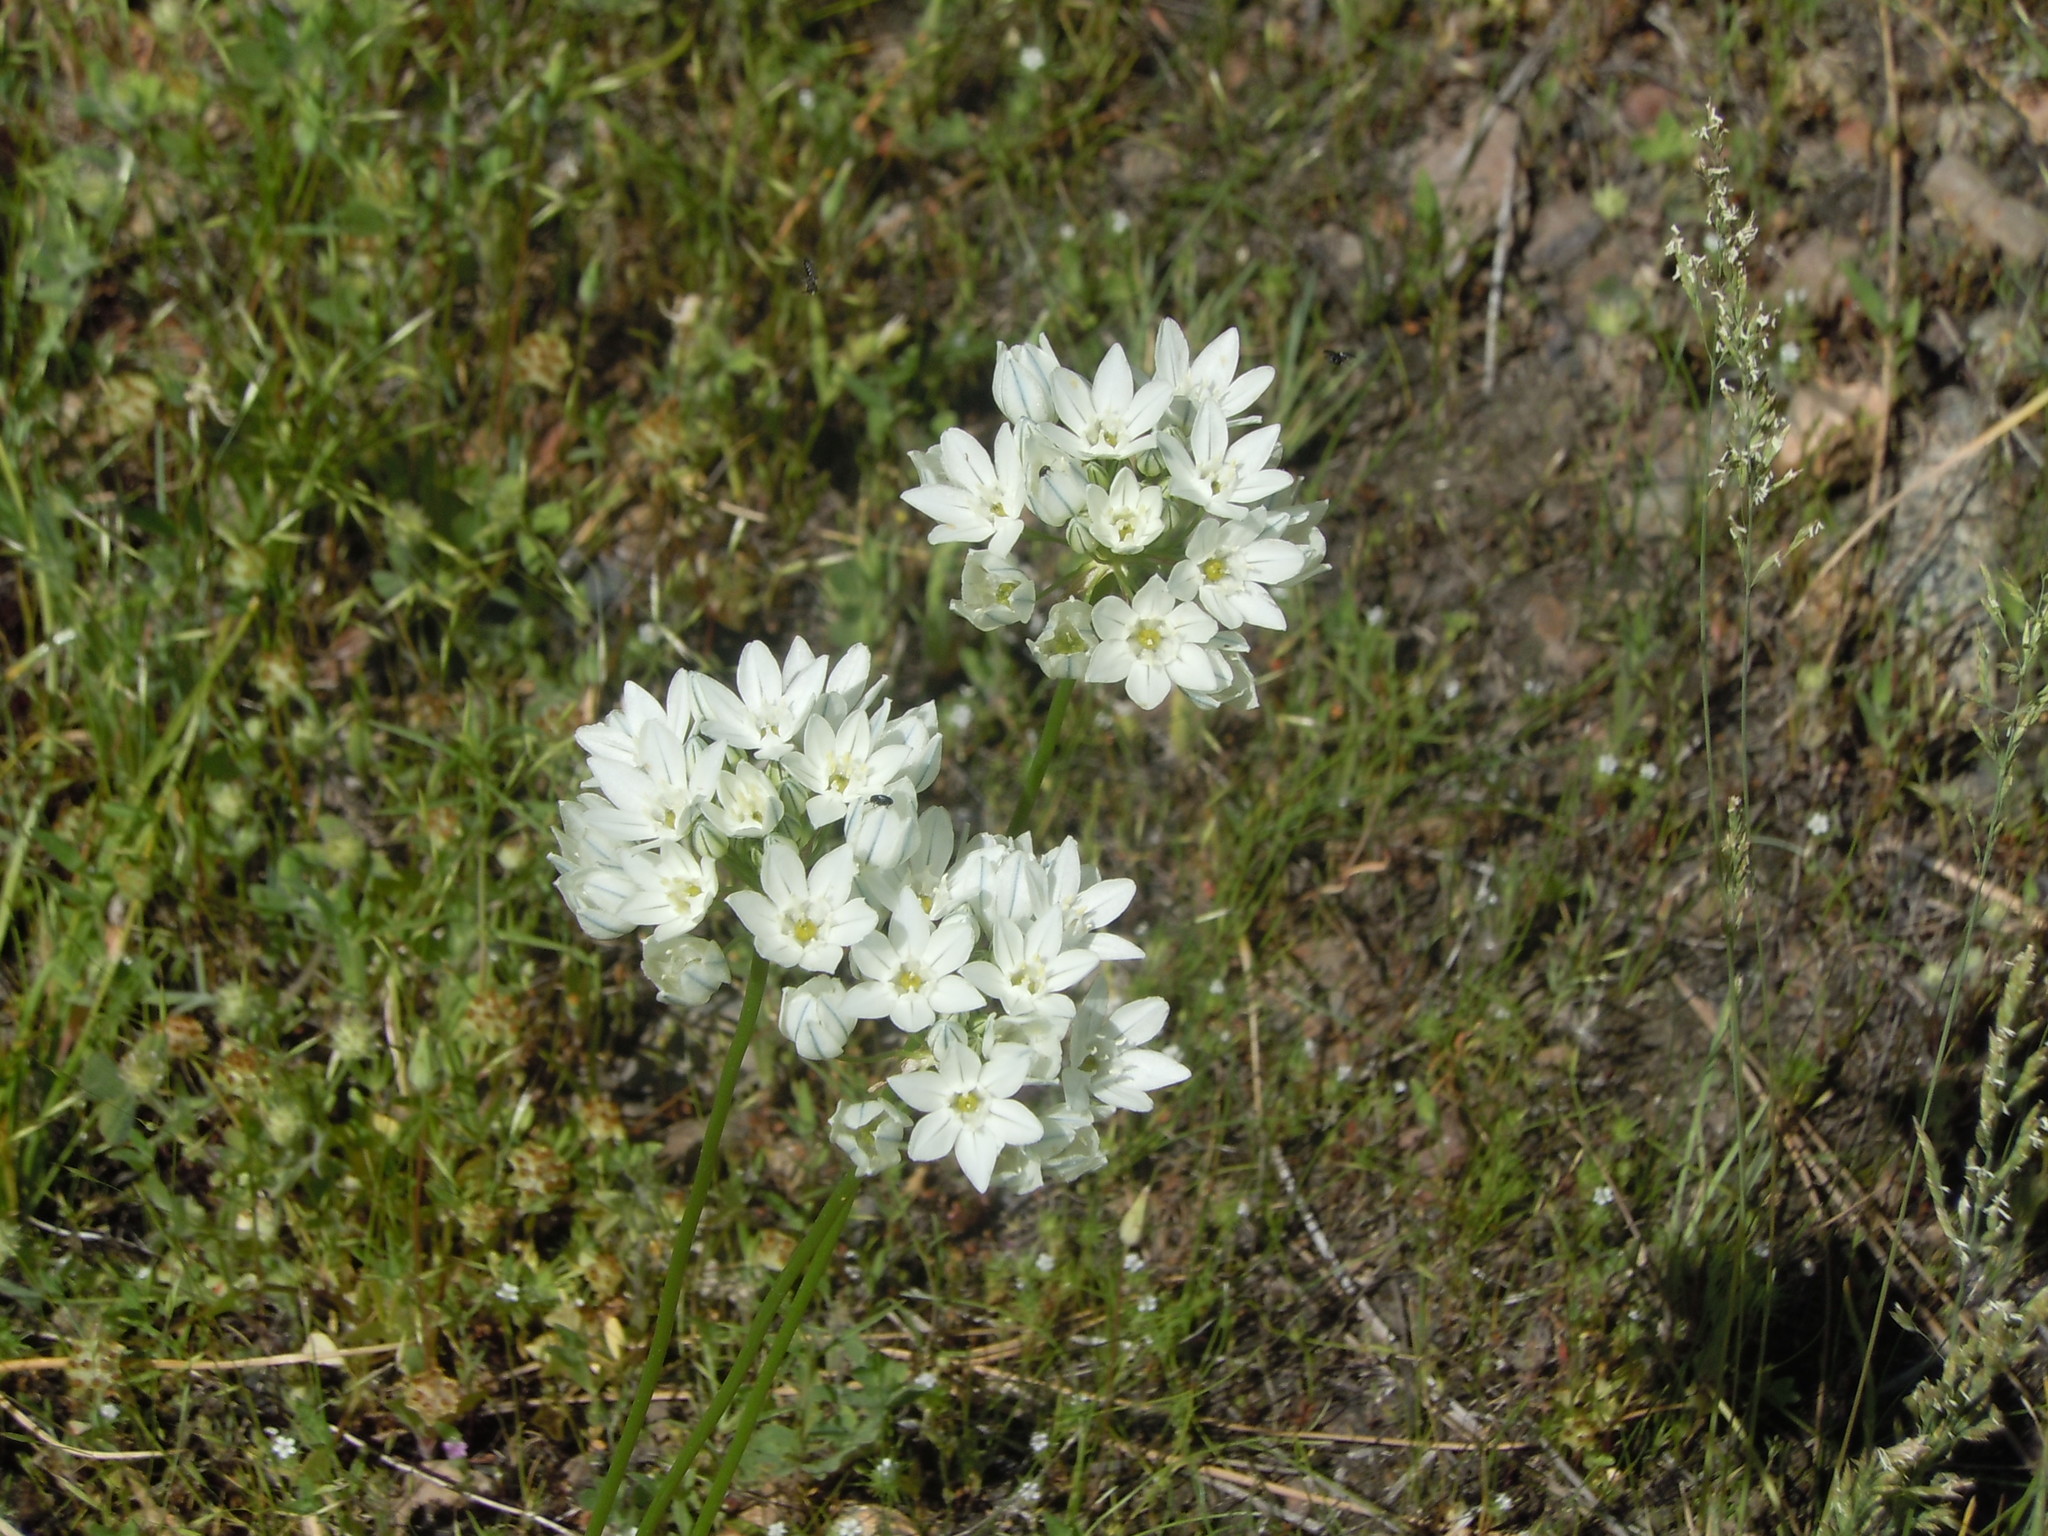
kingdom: Plantae
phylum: Tracheophyta
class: Liliopsida
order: Asparagales
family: Asparagaceae
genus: Triteleia
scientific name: Triteleia hyacinthina
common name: White brodiaea
